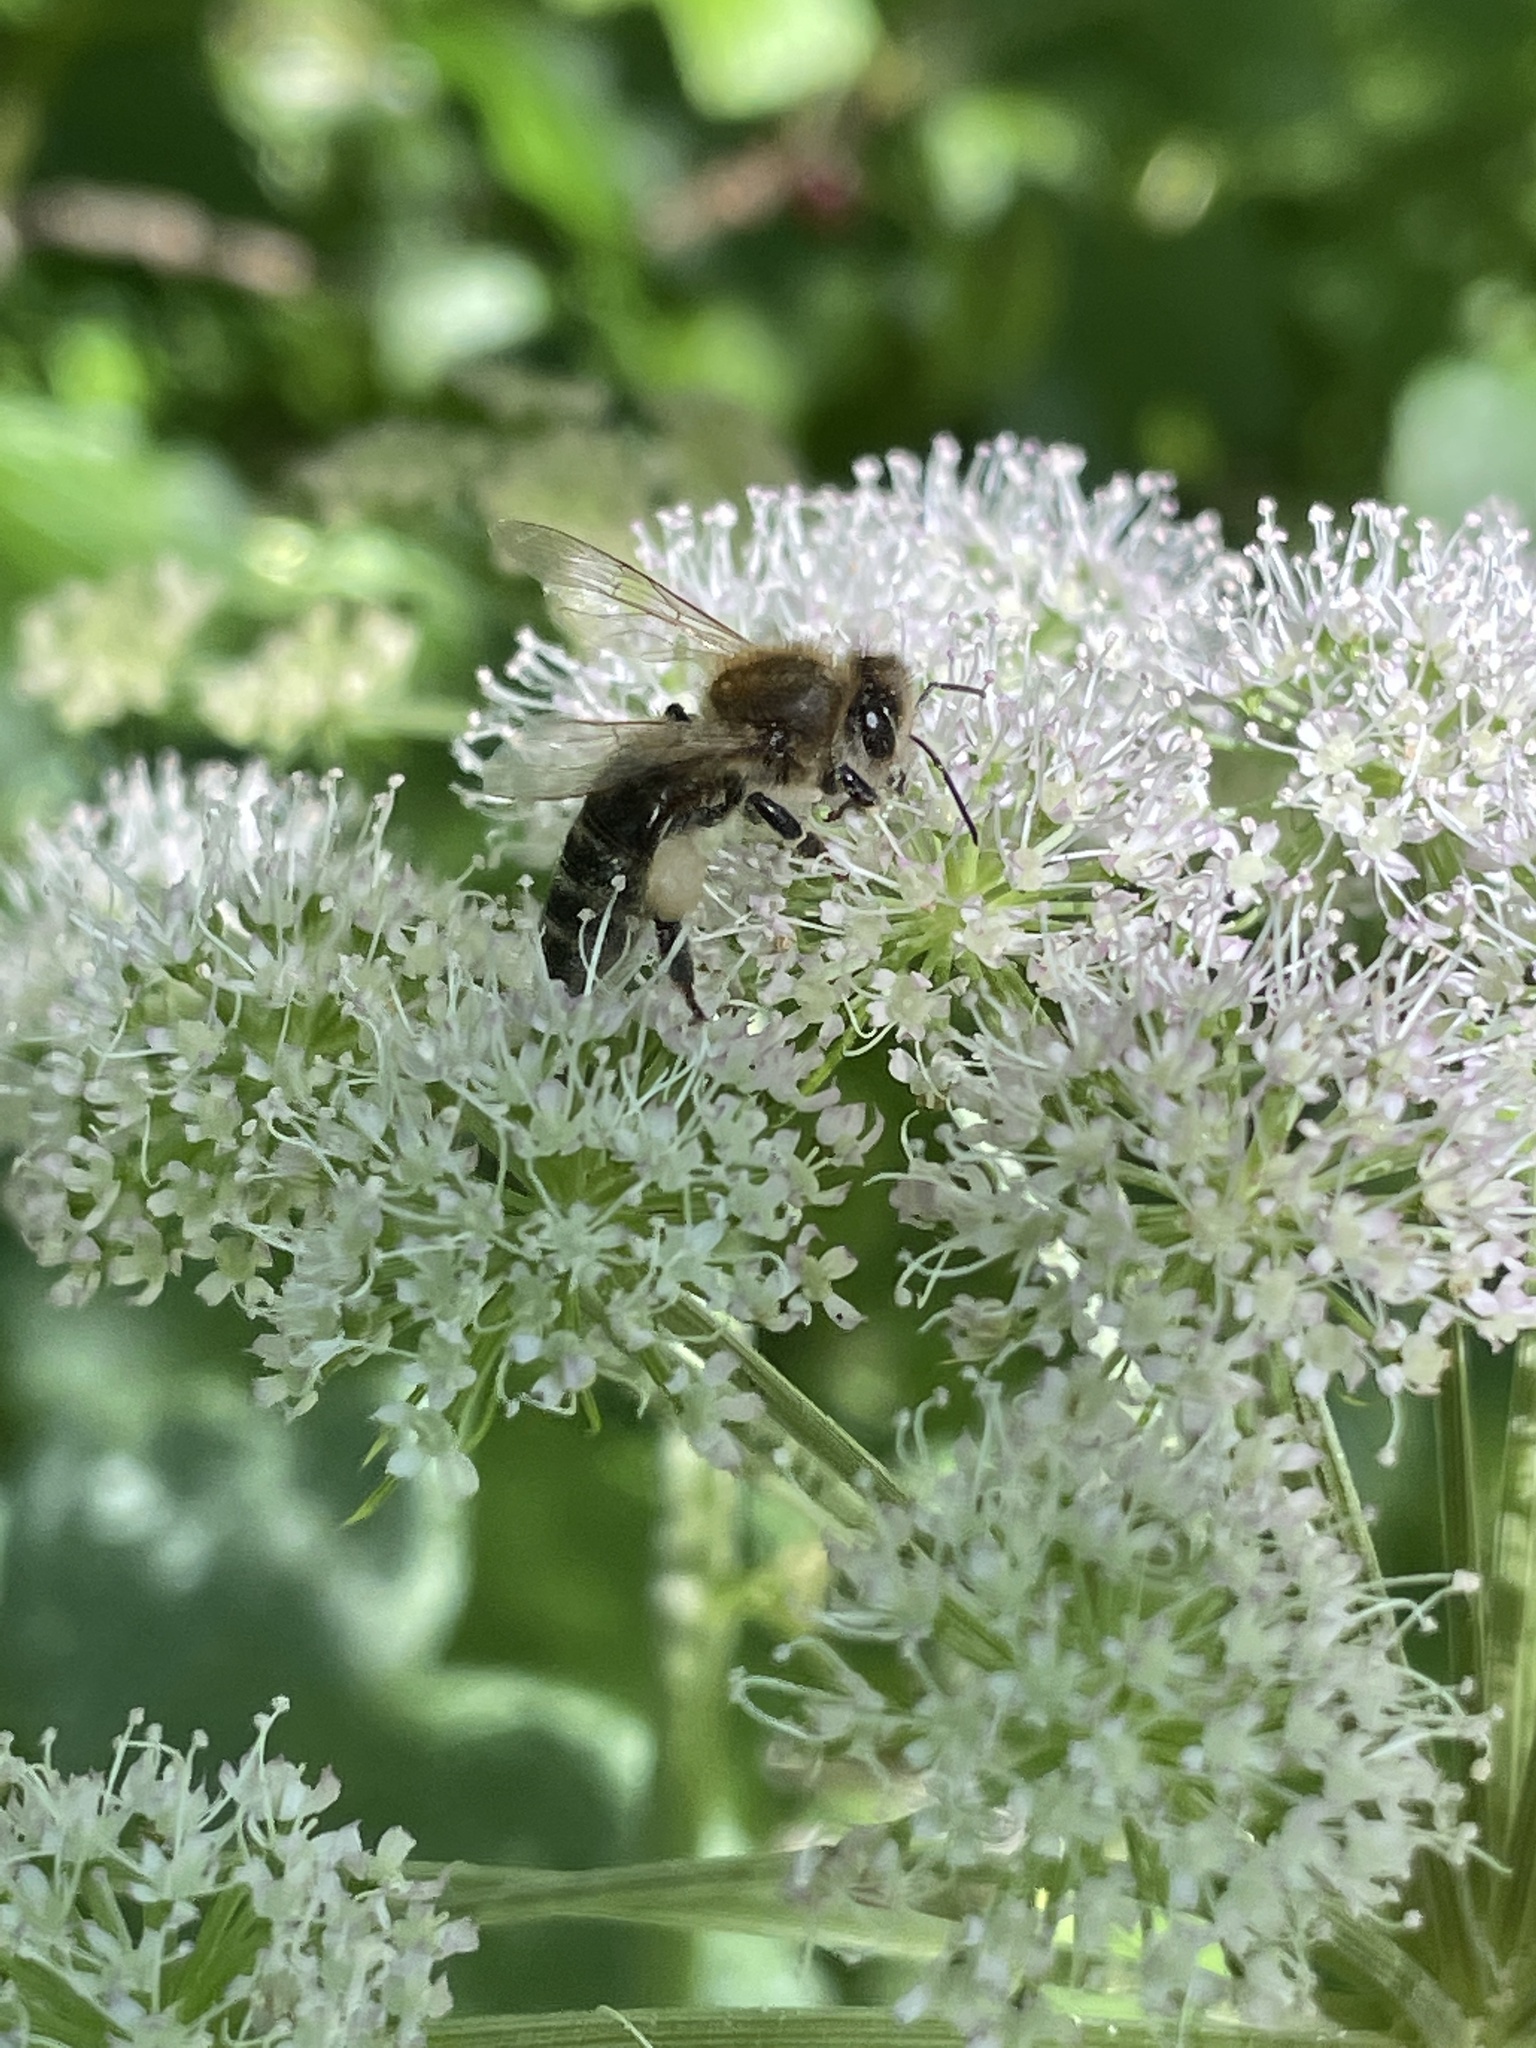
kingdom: Animalia
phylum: Arthropoda
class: Insecta
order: Hymenoptera
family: Apidae
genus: Apis
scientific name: Apis mellifera
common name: Honey bee
